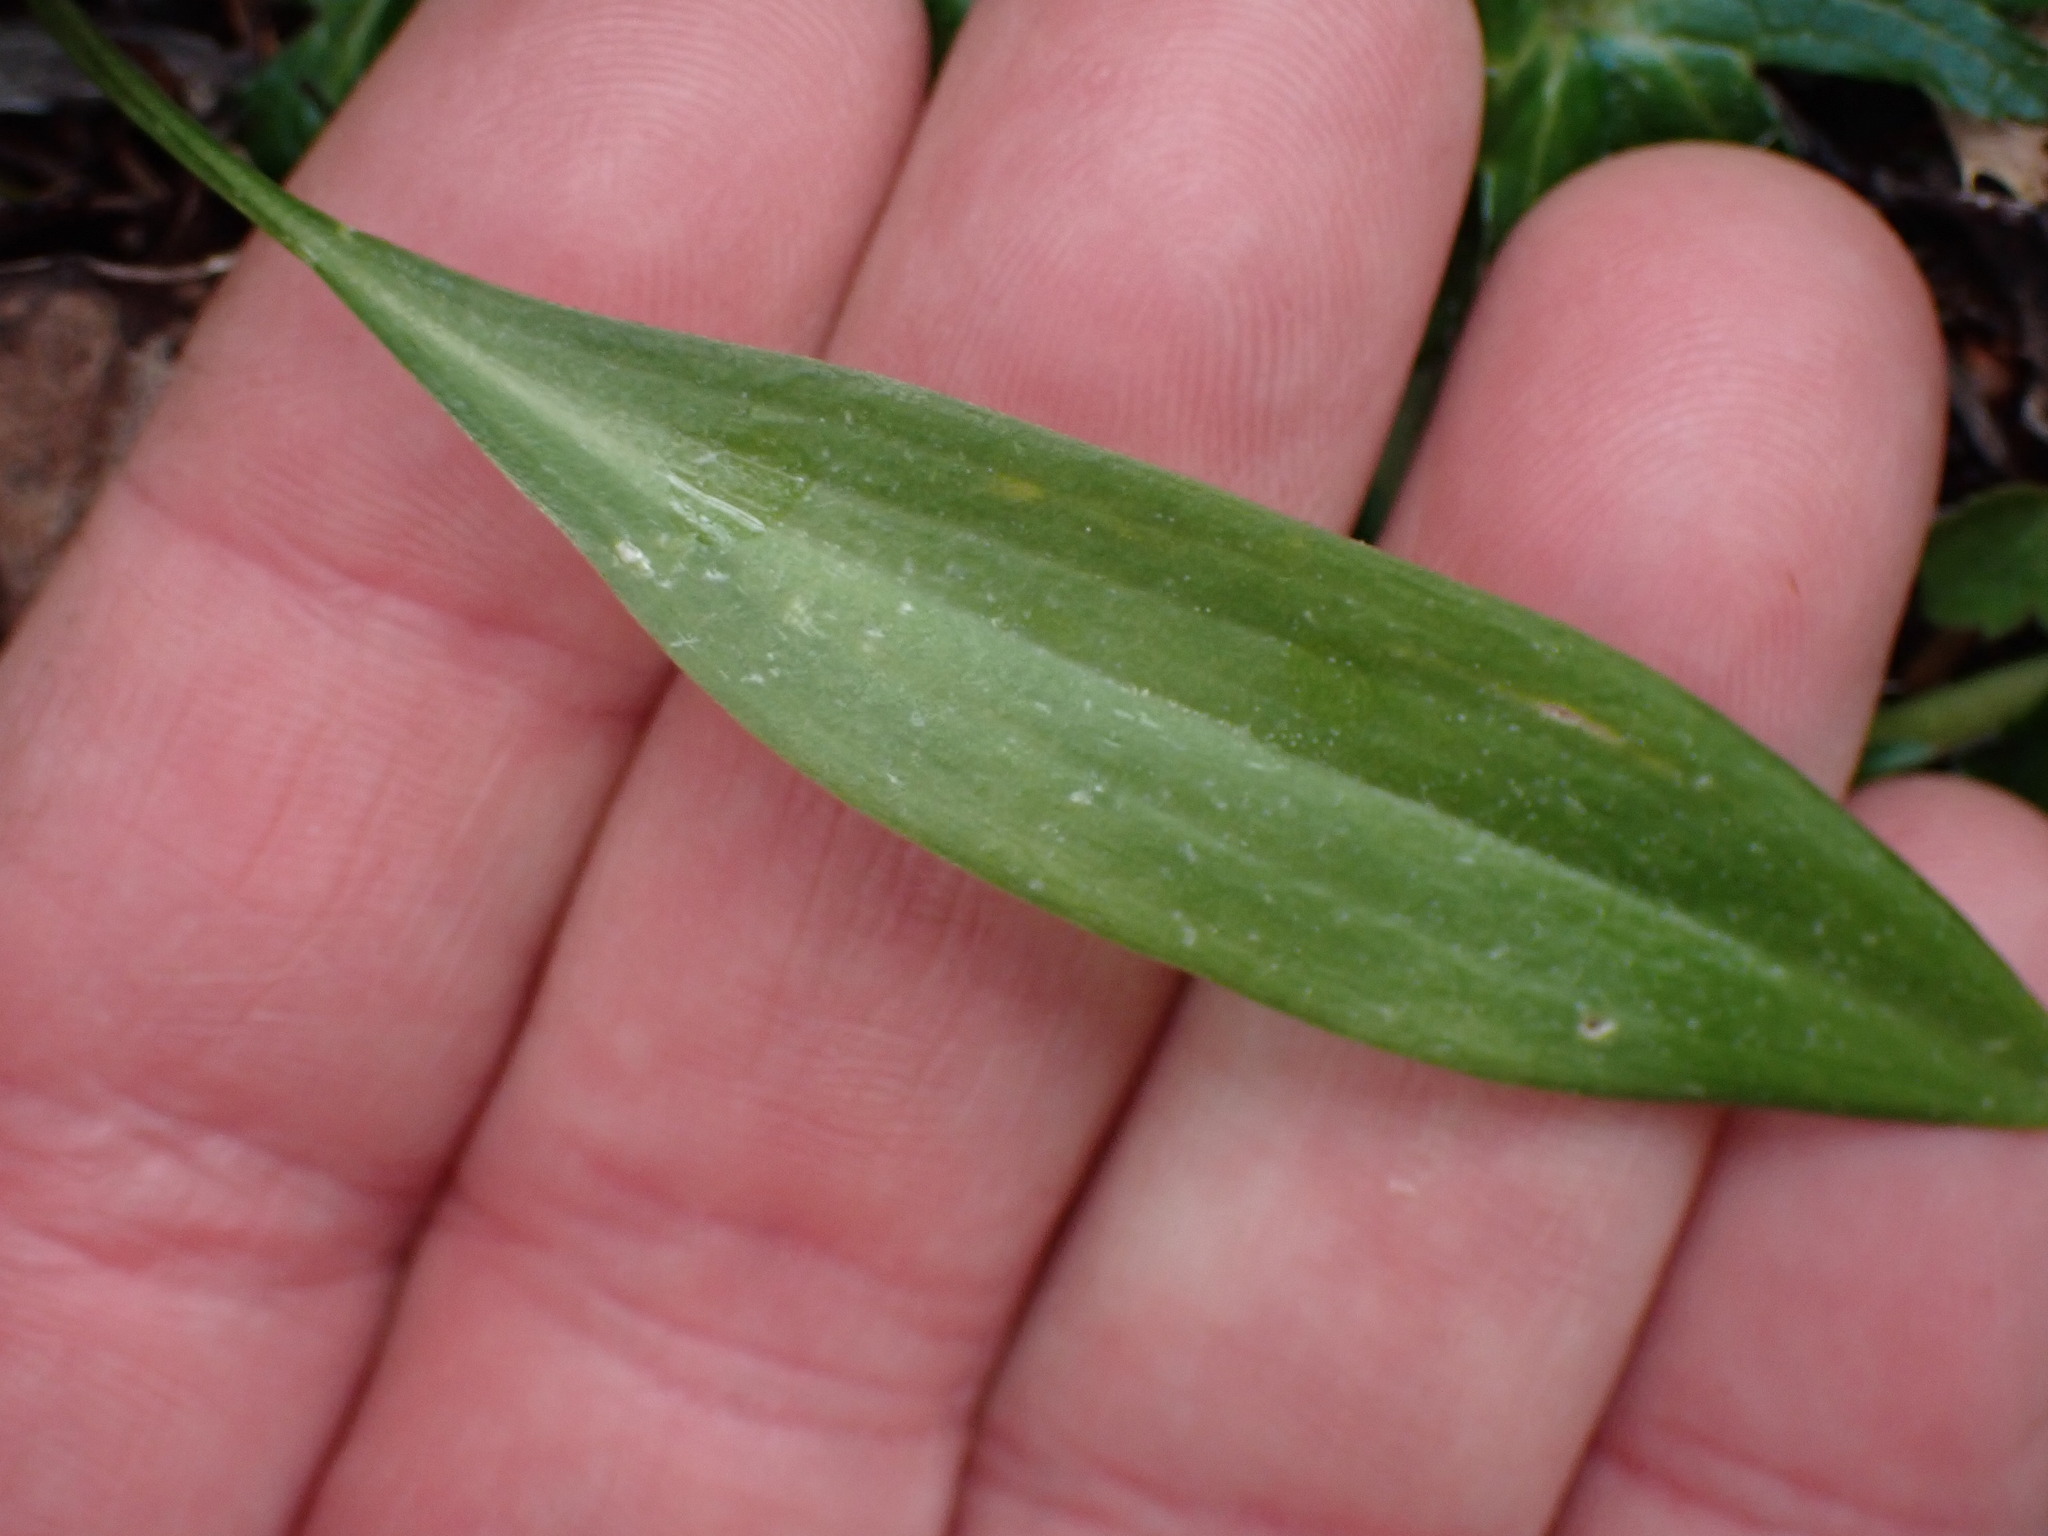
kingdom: Plantae
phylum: Tracheophyta
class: Liliopsida
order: Liliales
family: Liliaceae
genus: Fritillaria
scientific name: Fritillaria affinis
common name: Ojai fritillary
